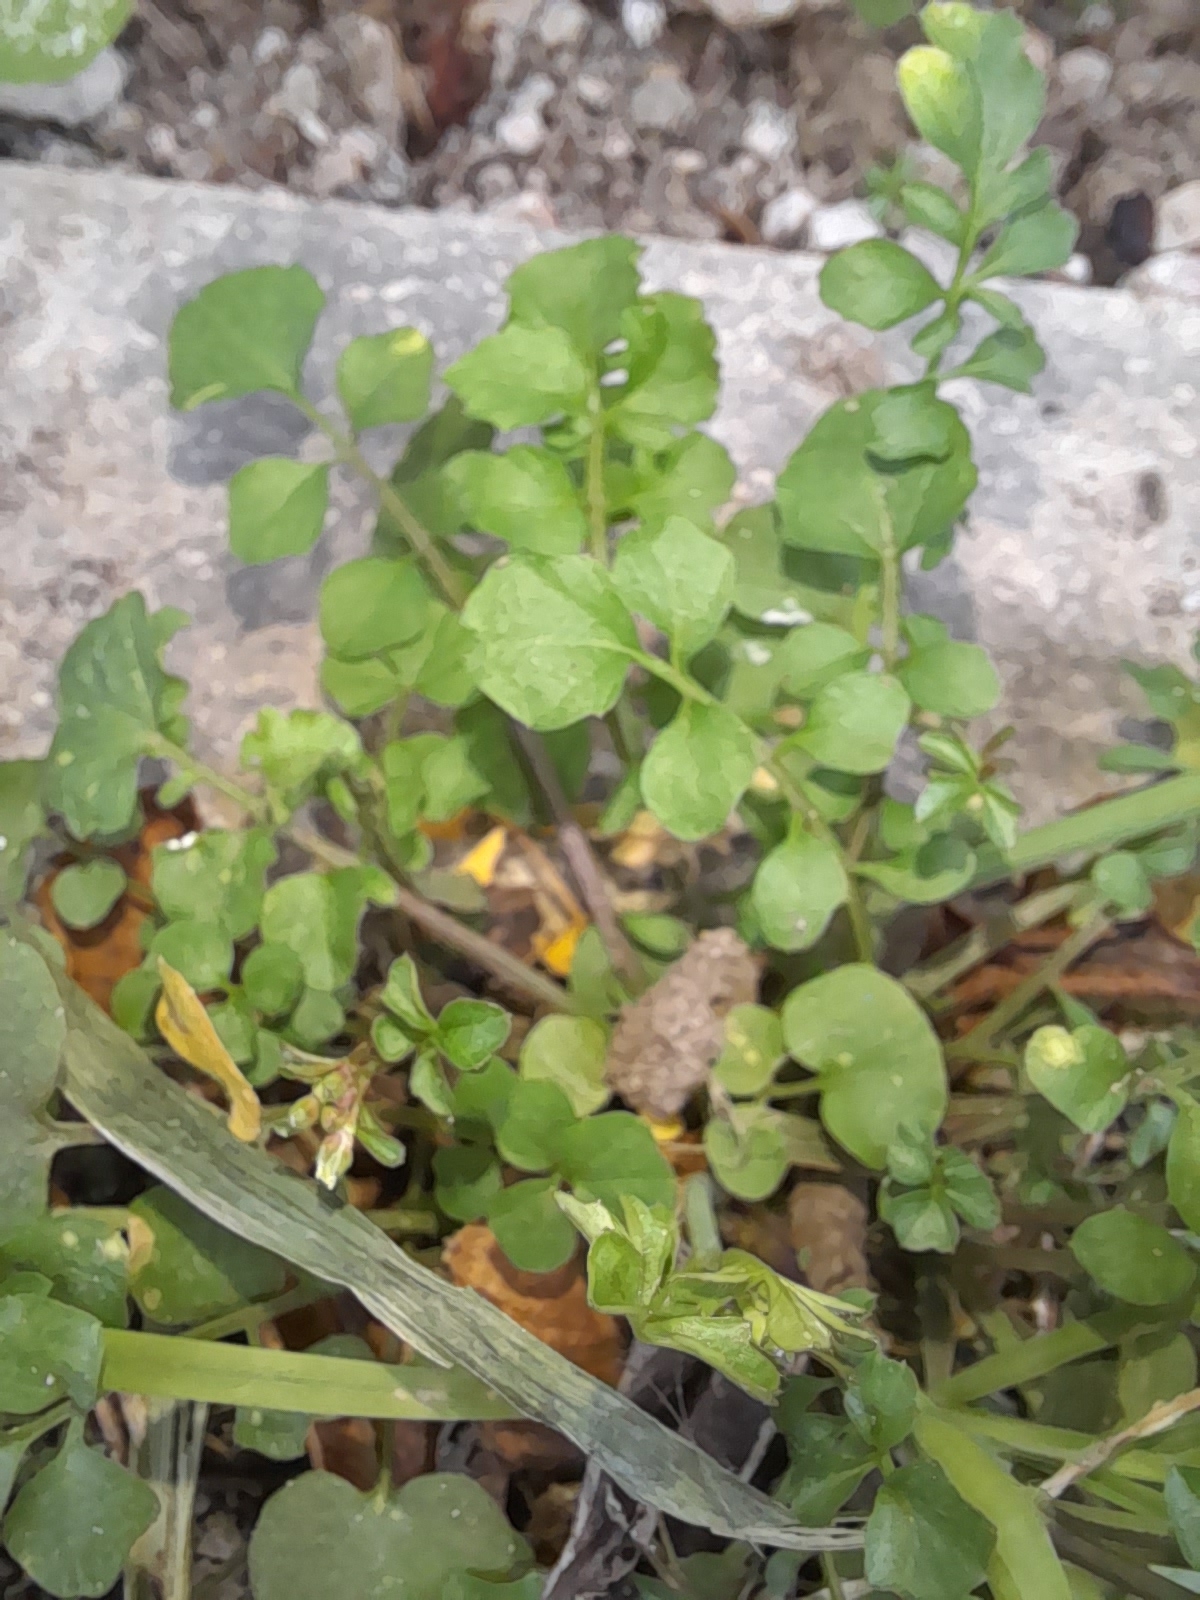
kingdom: Plantae
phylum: Tracheophyta
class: Magnoliopsida
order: Brassicales
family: Brassicaceae
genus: Cardamine
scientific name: Cardamine hirsuta
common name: Hairy bittercress
